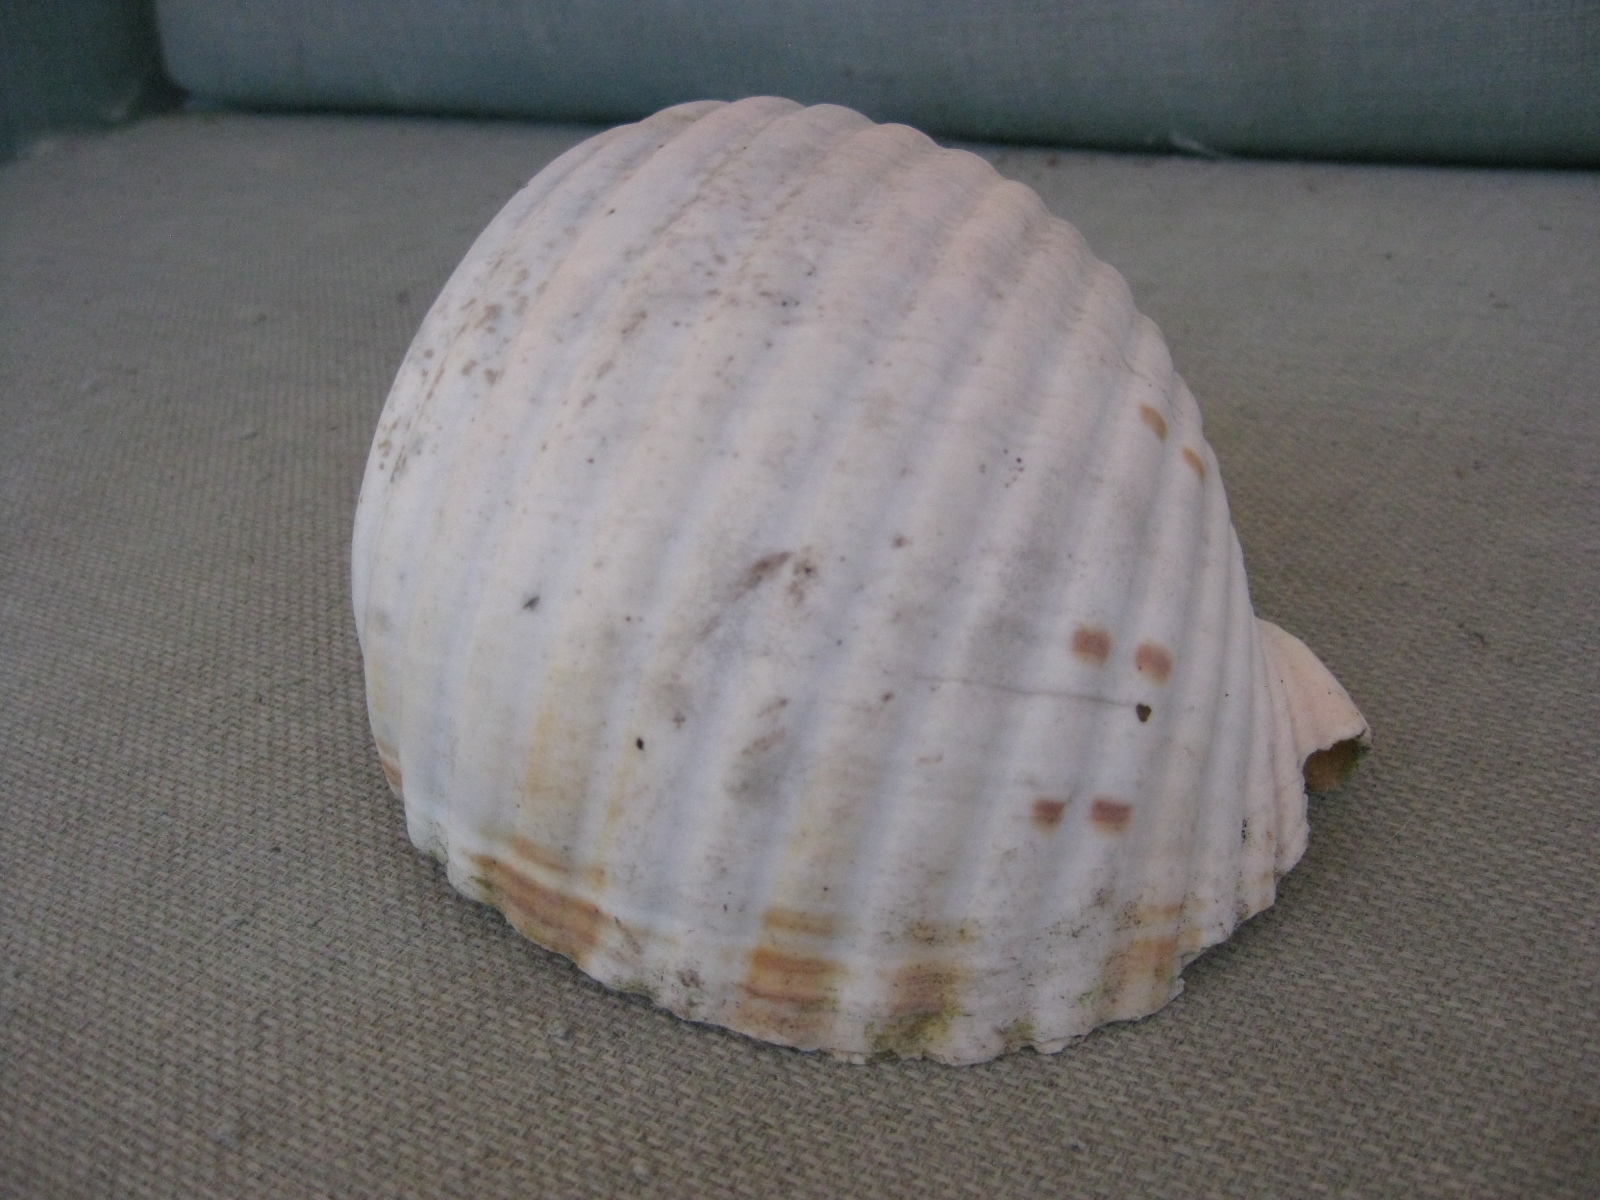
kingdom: Animalia
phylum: Mollusca
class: Gastropoda
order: Littorinimorpha
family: Tonnidae
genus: Tonna
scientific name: Tonna tankervillii
